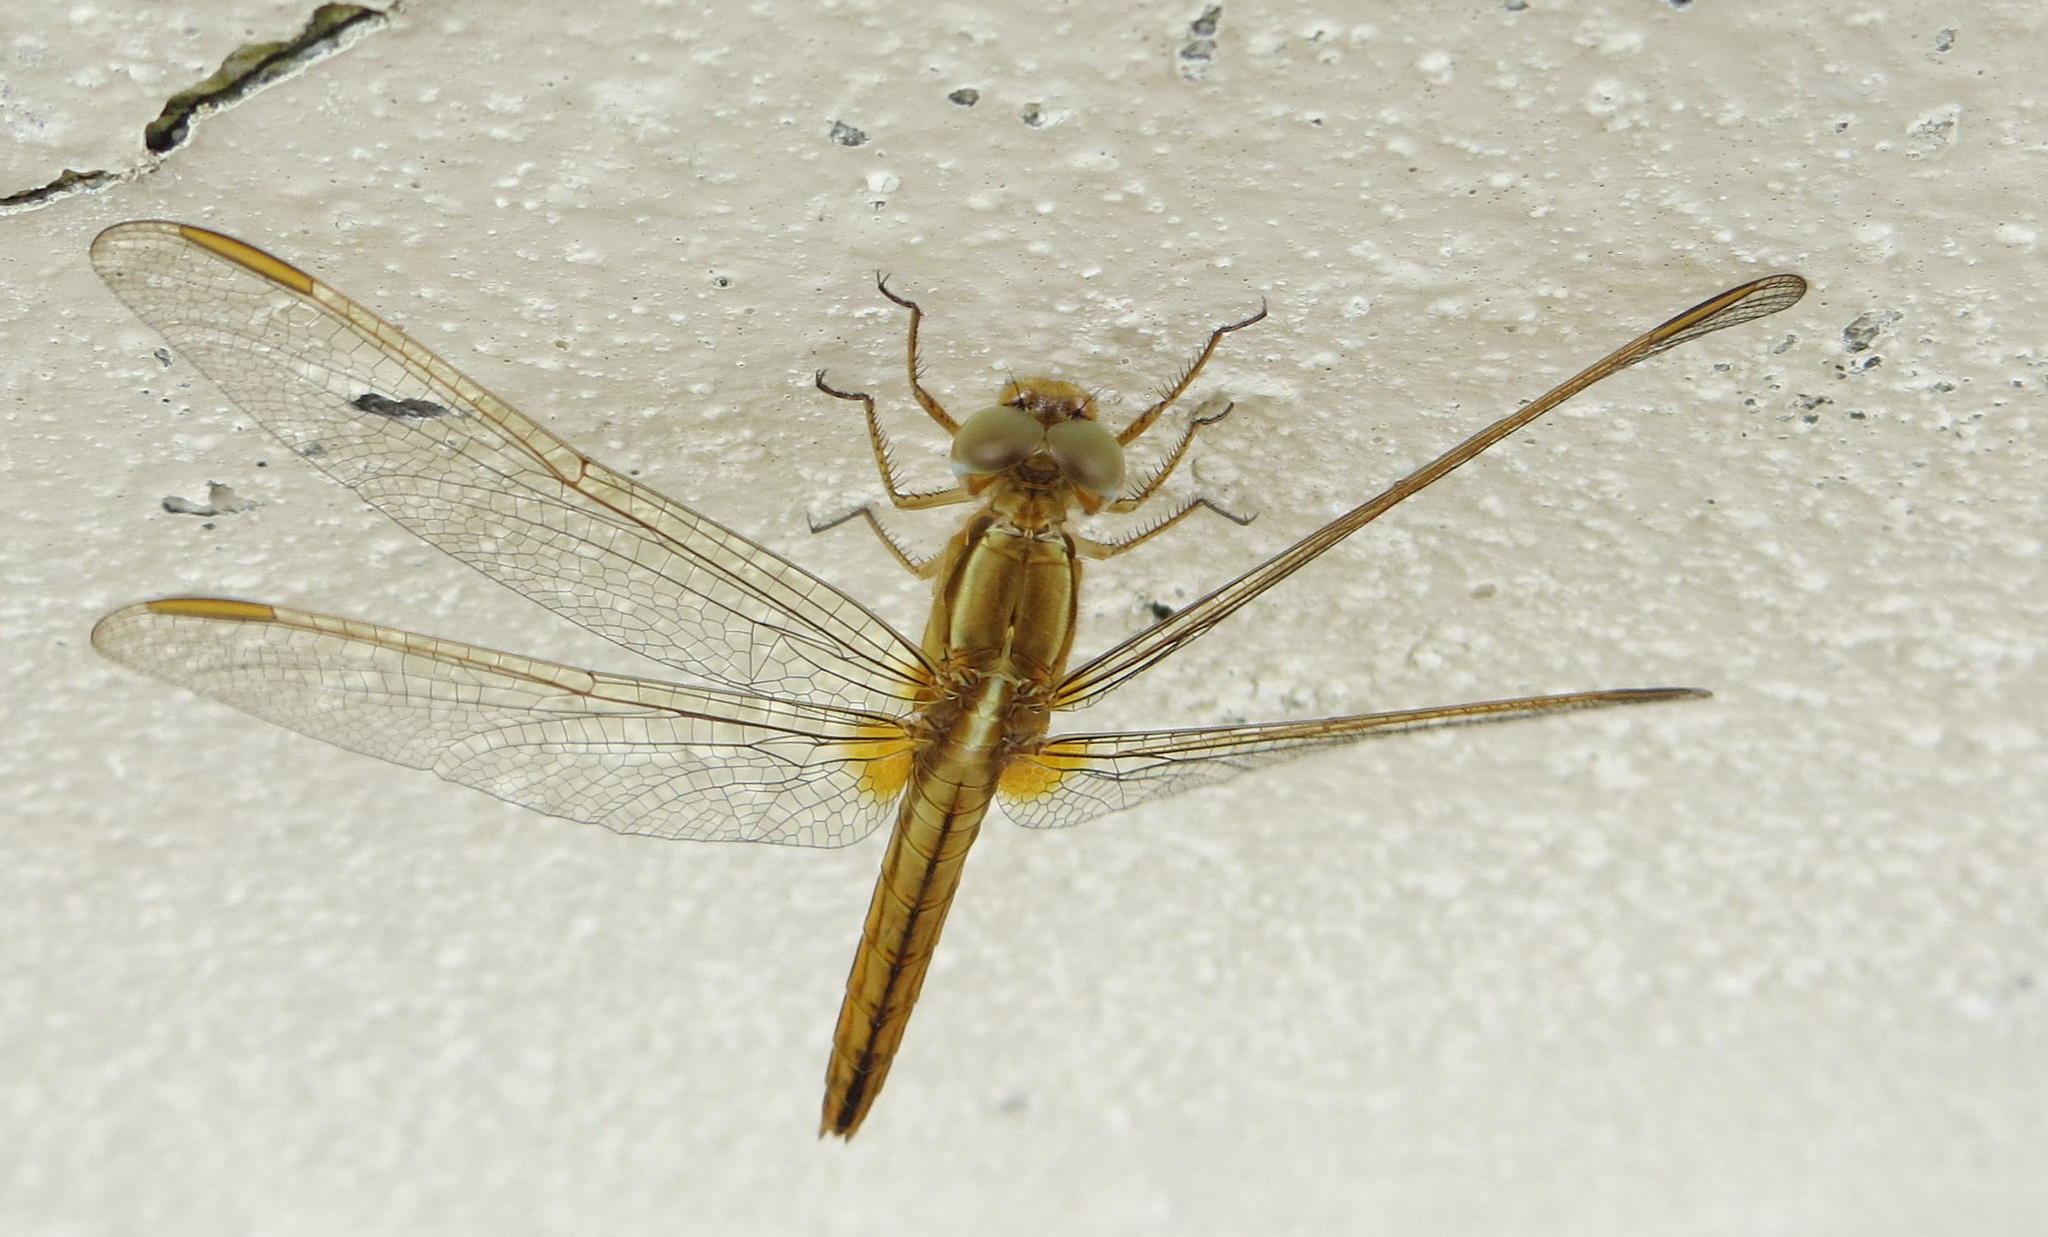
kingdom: Animalia
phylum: Arthropoda
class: Insecta
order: Odonata
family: Libellulidae
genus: Crocothemis
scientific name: Crocothemis erythraea
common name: Scarlet dragonfly
